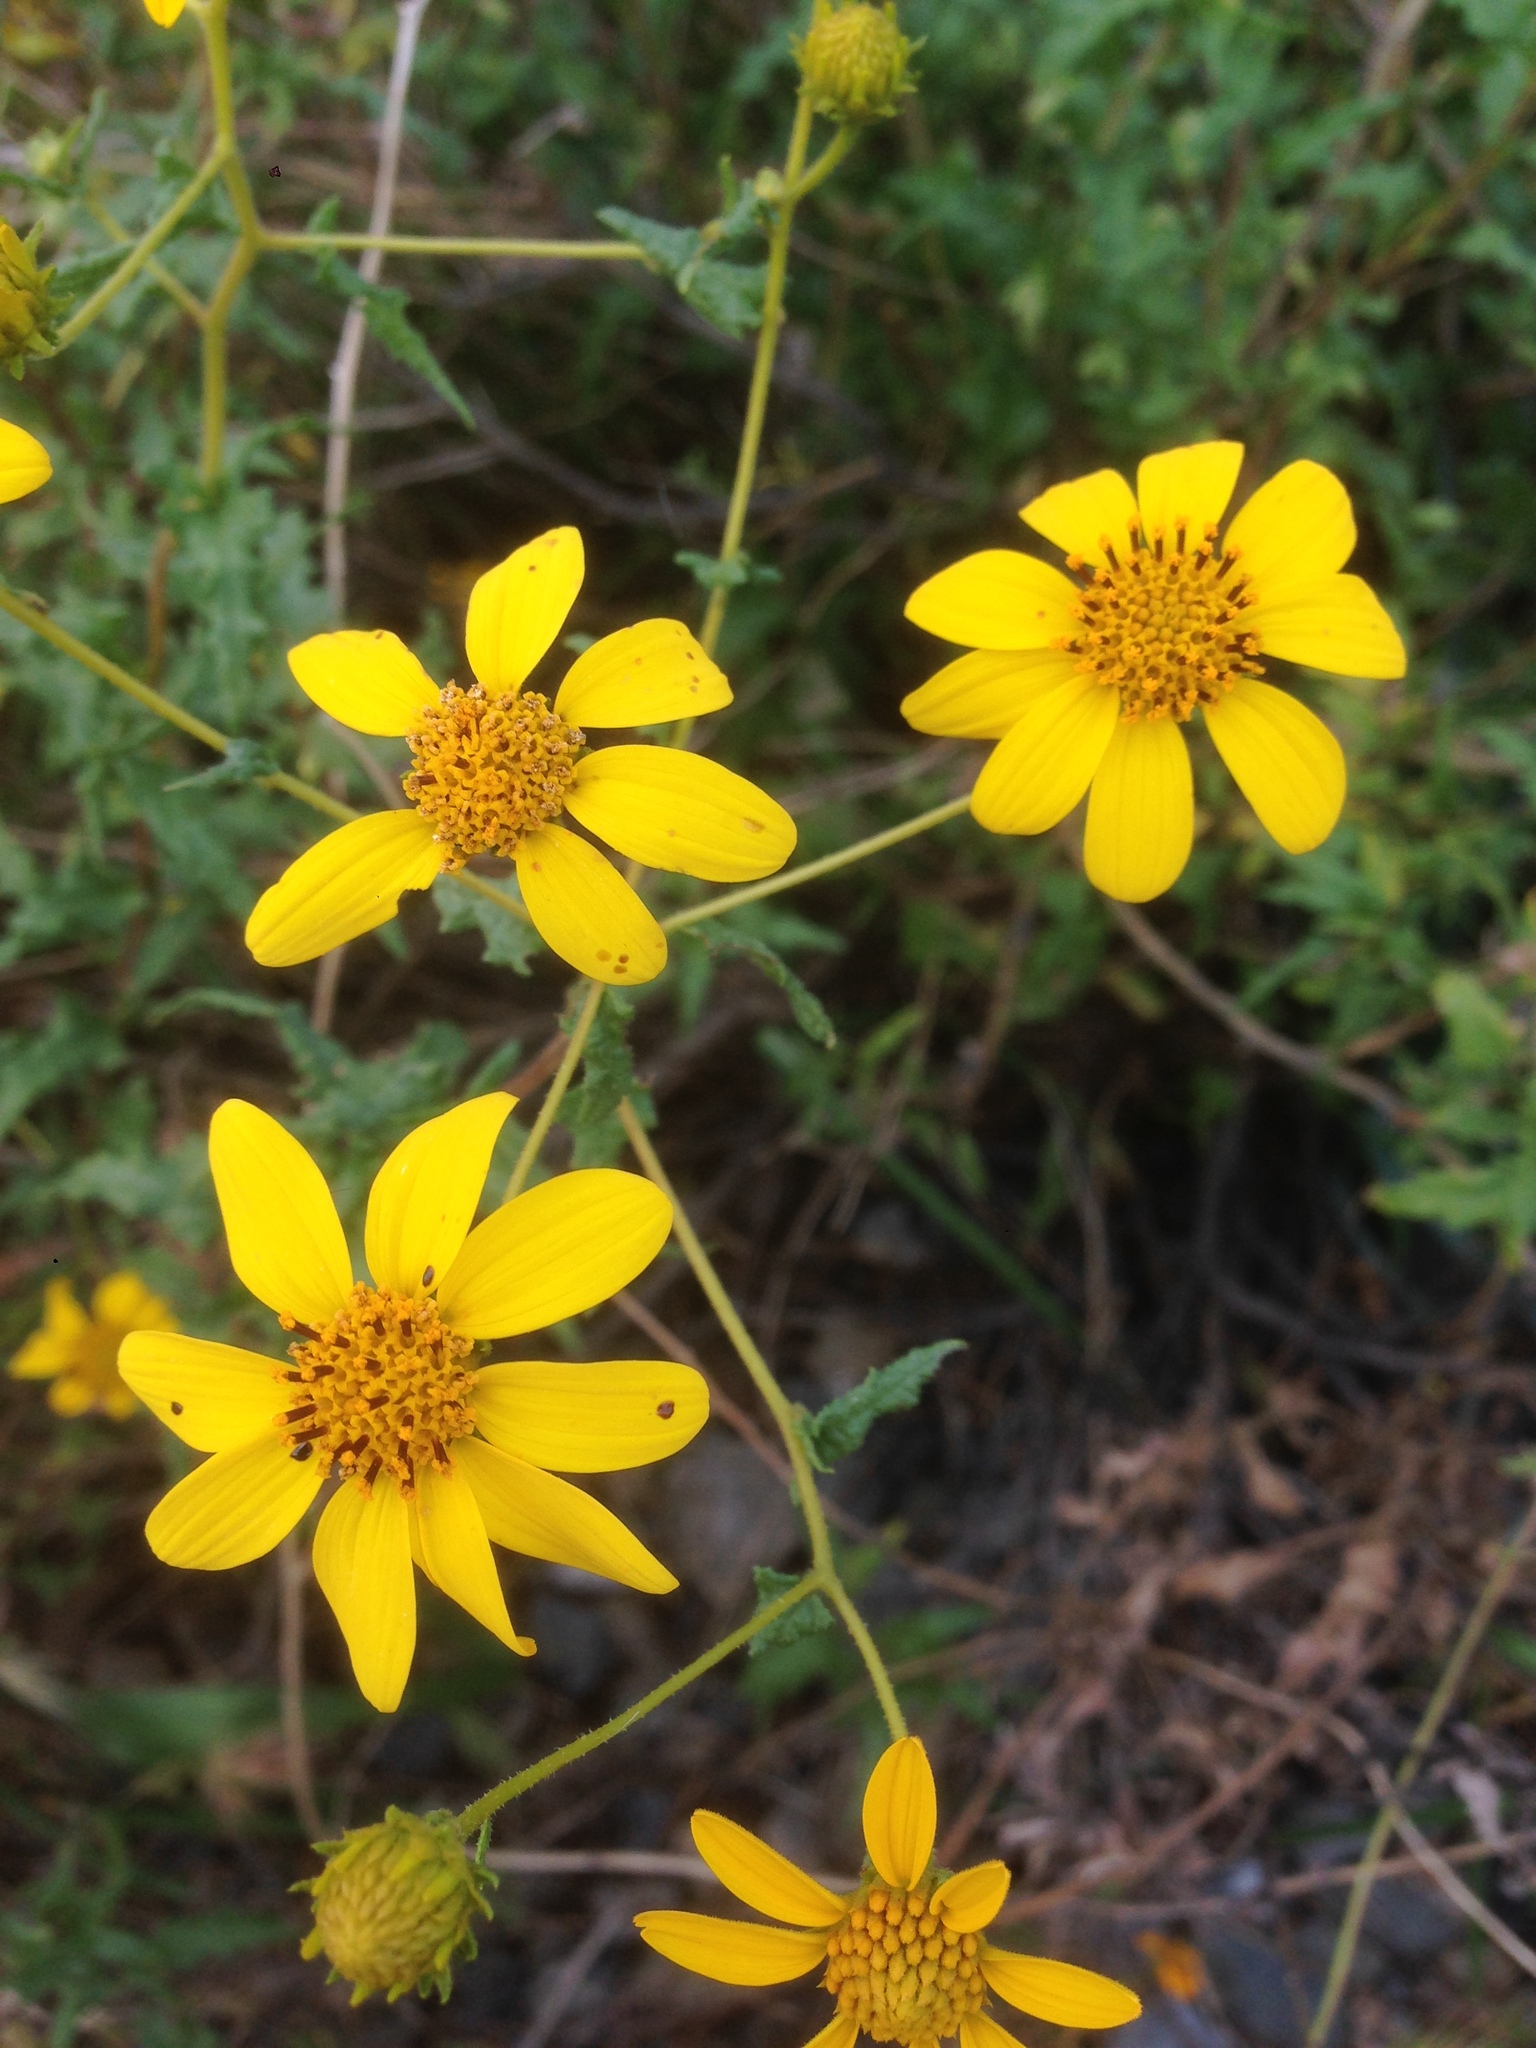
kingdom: Plantae
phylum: Tracheophyta
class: Magnoliopsida
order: Asterales
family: Asteraceae
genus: Bahiopsis
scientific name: Bahiopsis laciniata
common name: San diego county viguiera
